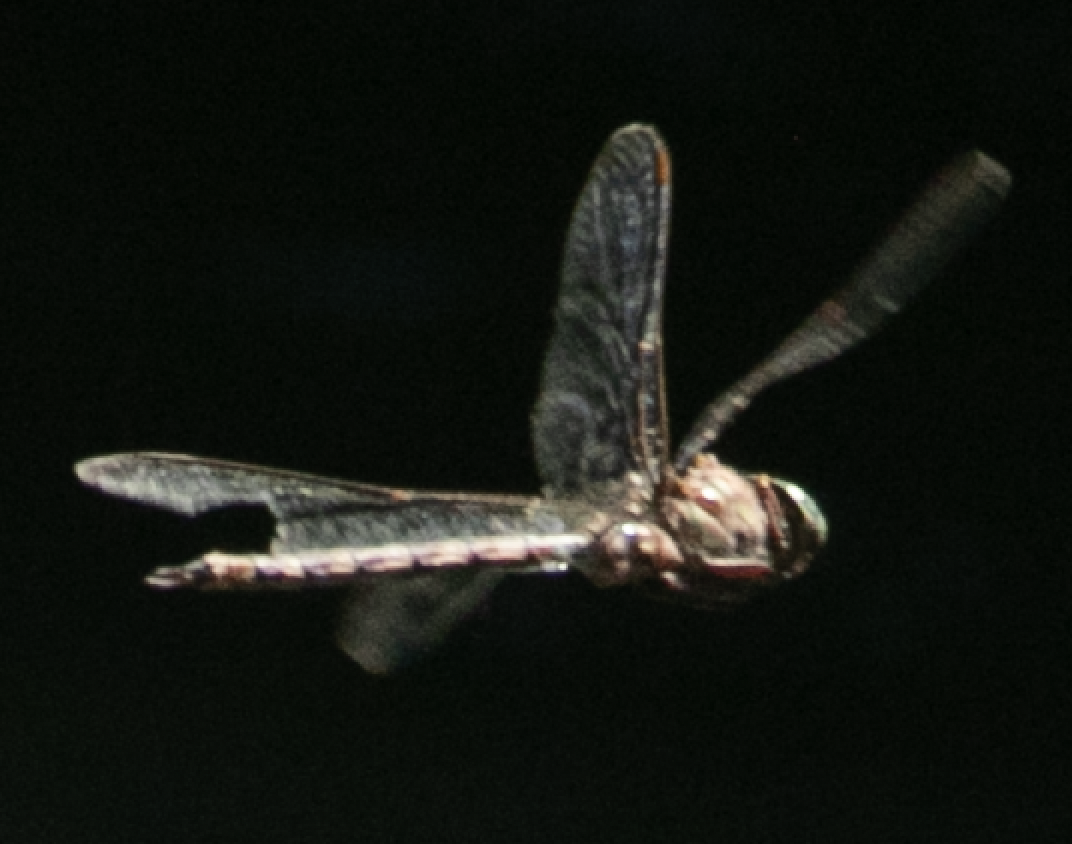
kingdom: Animalia
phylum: Arthropoda
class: Insecta
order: Odonata
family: Aeshnidae
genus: Boyeria
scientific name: Boyeria irene
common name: Western spectre
